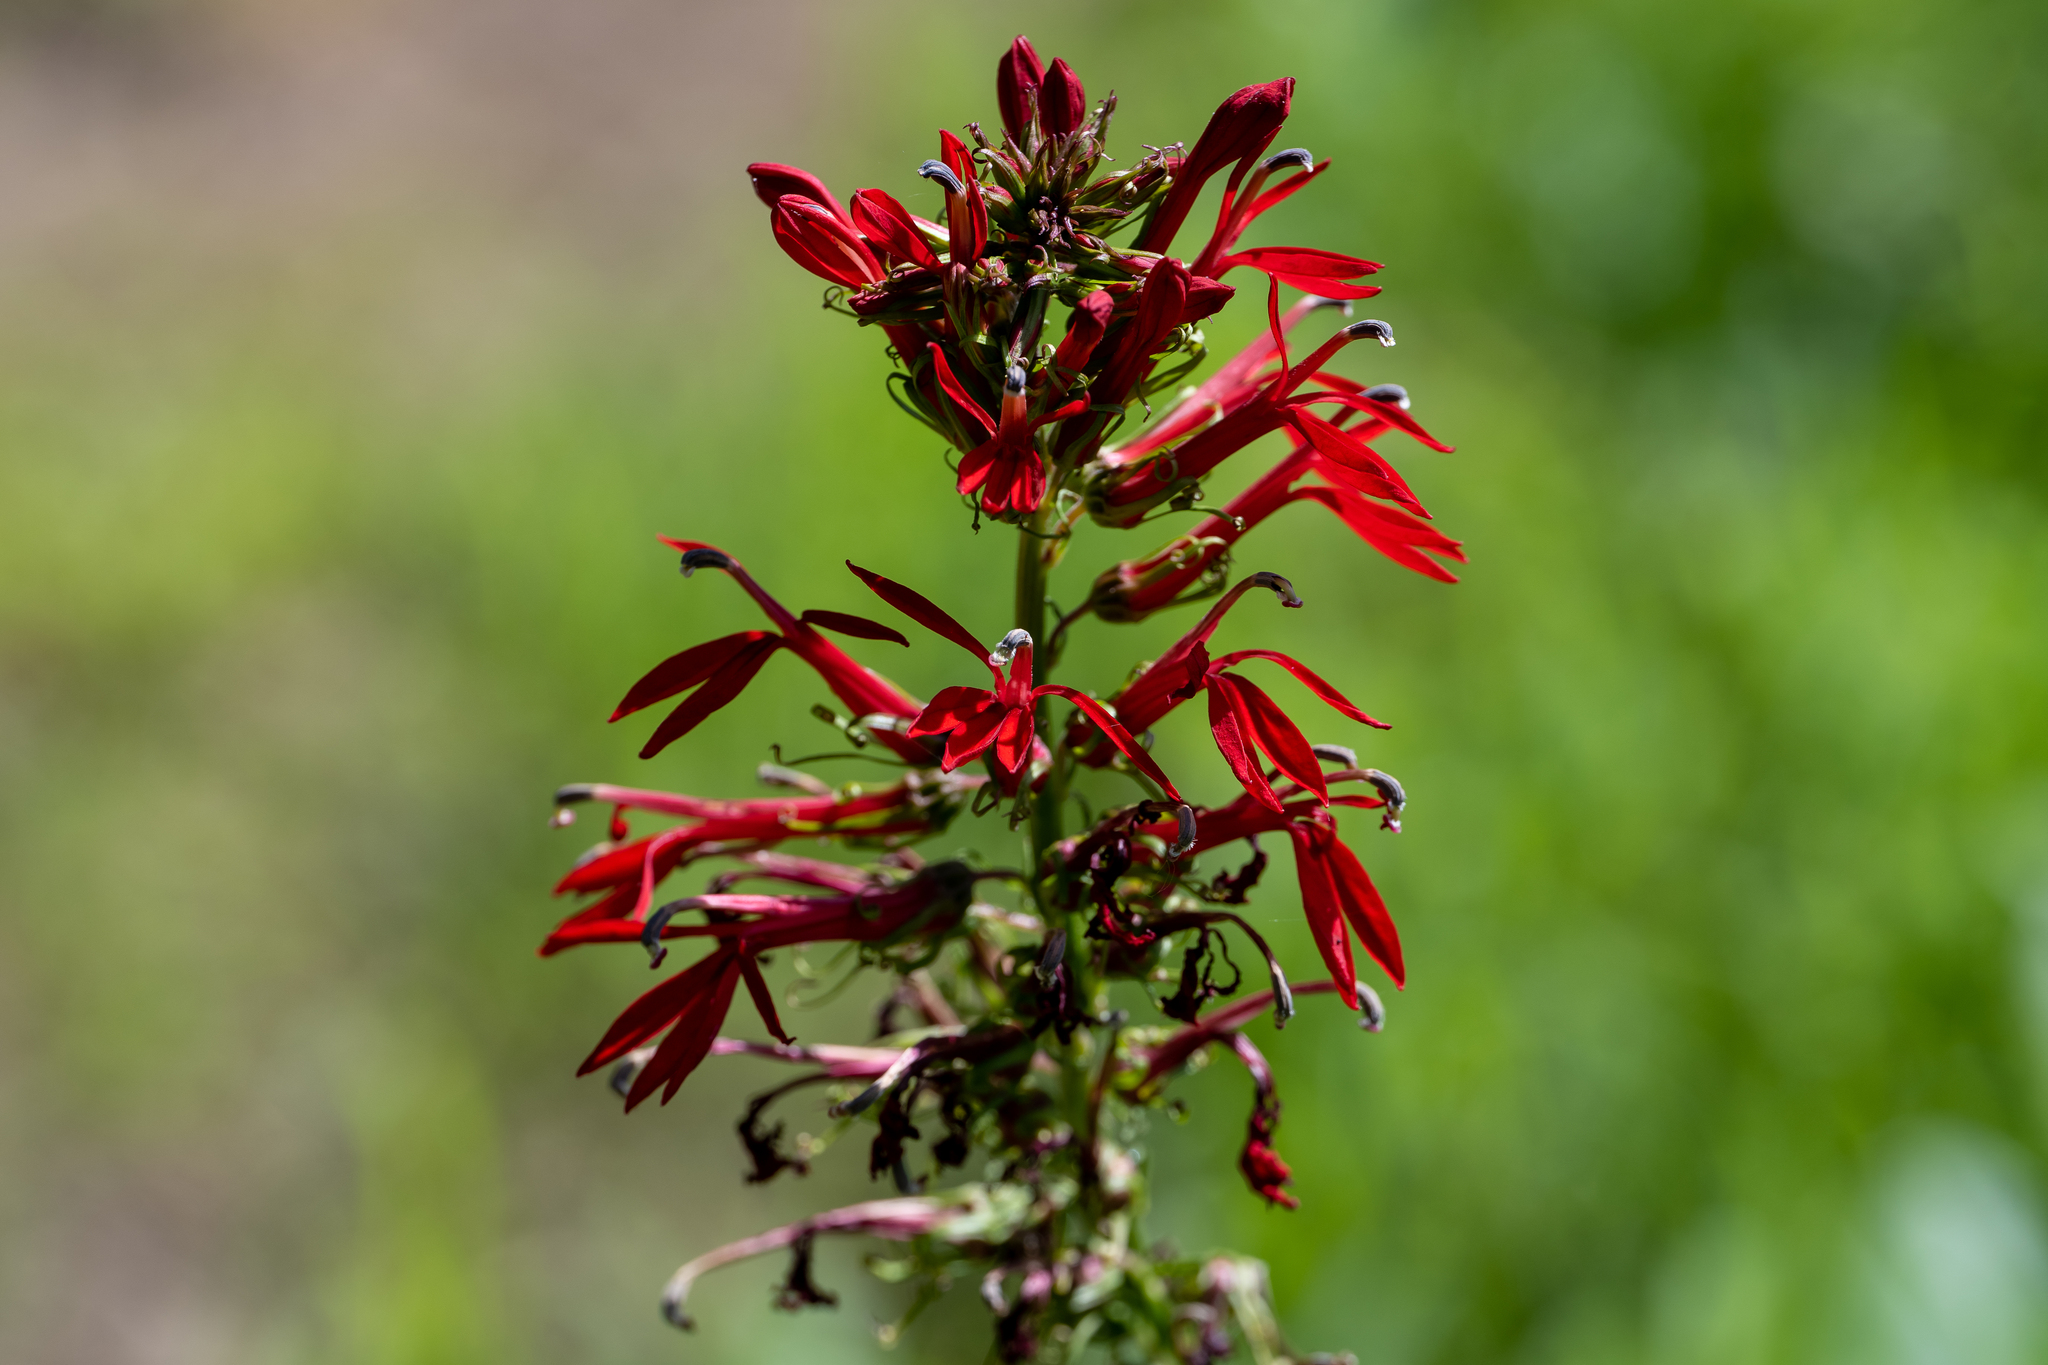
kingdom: Plantae
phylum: Tracheophyta
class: Magnoliopsida
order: Asterales
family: Campanulaceae
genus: Lobelia
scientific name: Lobelia cardinalis
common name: Cardinal flower
